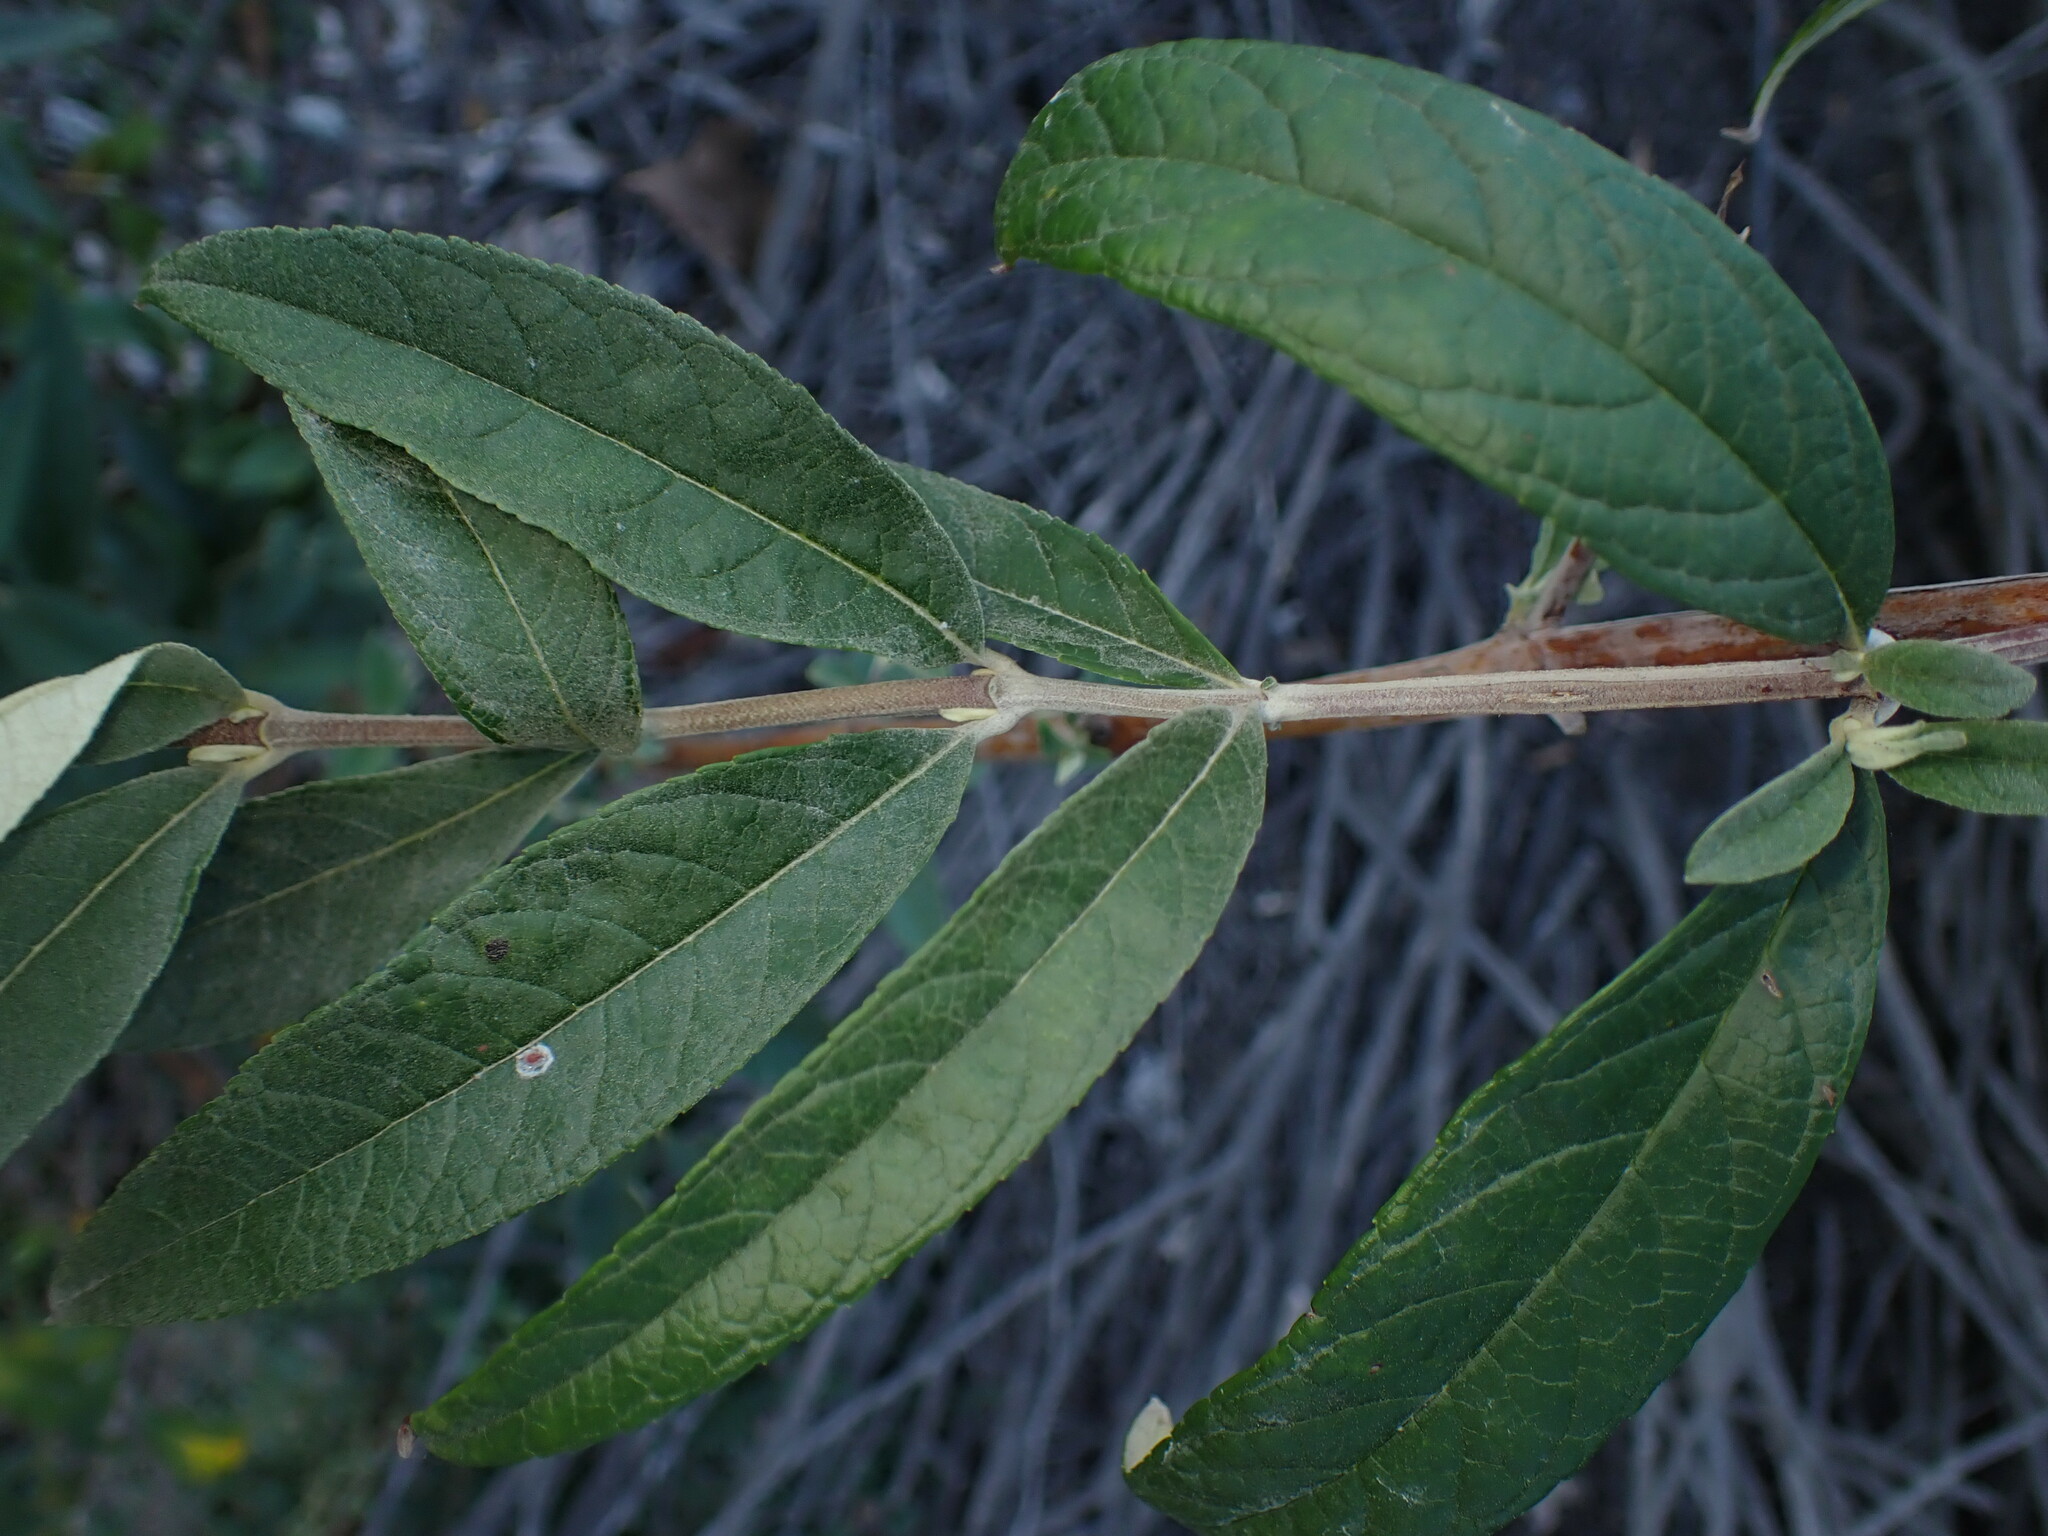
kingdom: Plantae
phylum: Tracheophyta
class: Magnoliopsida
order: Lamiales
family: Scrophulariaceae
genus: Buddleja
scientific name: Buddleja davidii
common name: Butterfly-bush
